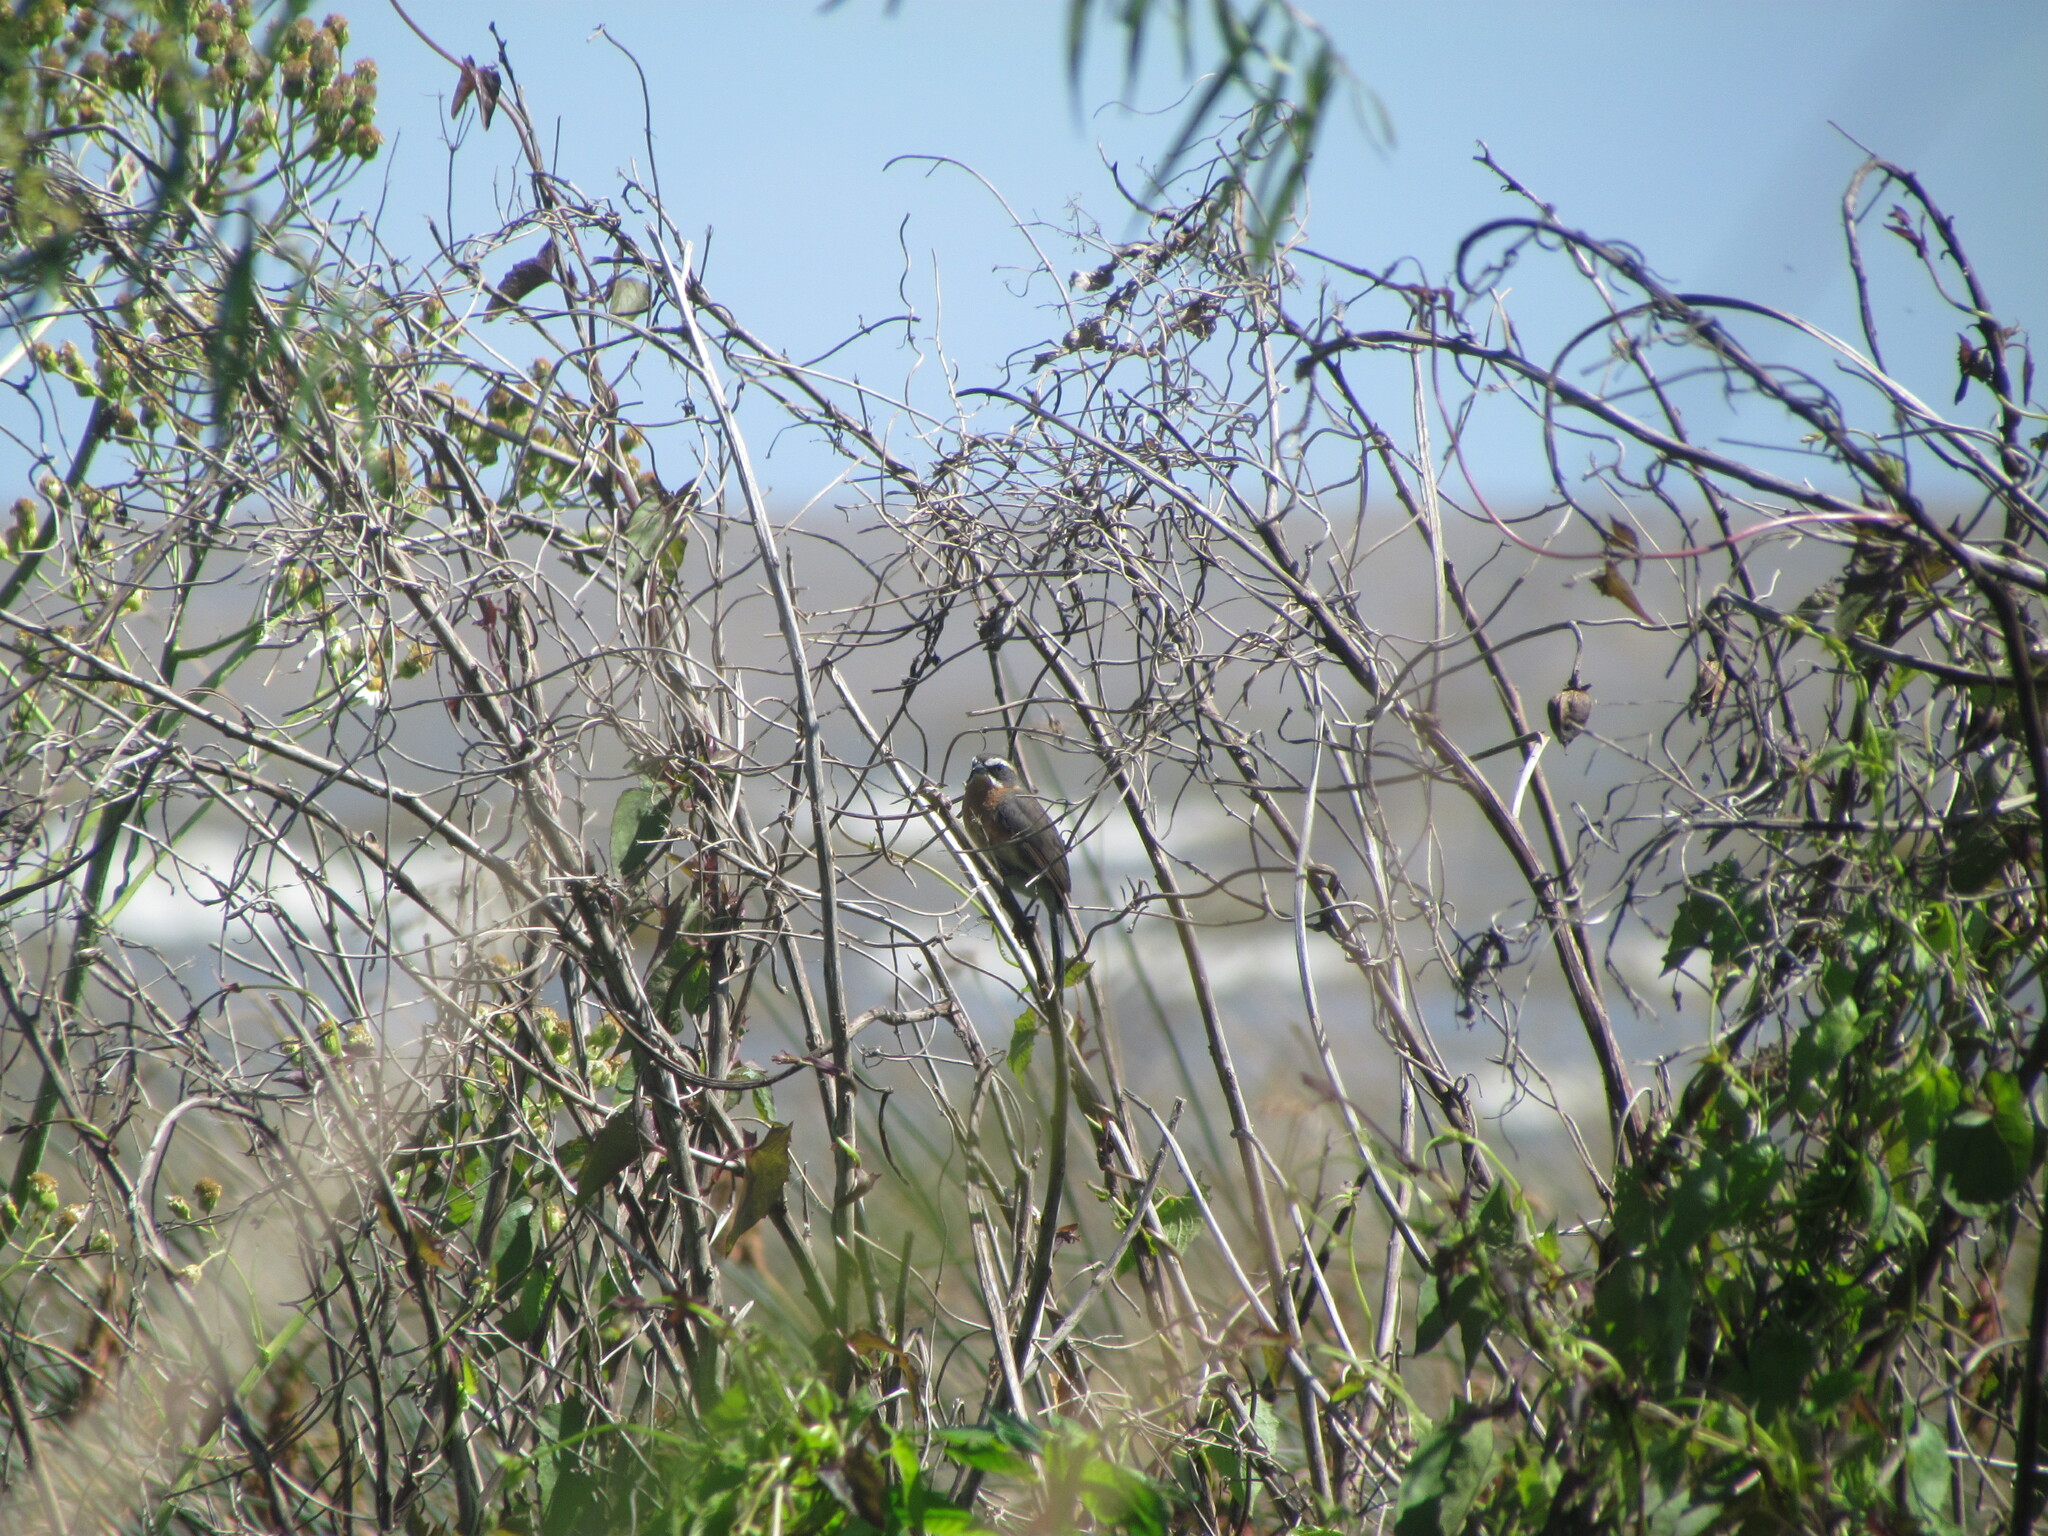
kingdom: Animalia
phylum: Chordata
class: Aves
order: Passeriformes
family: Thraupidae
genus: Poospiza
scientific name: Poospiza nigrorufa
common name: Black-and-rufous warbling finch
